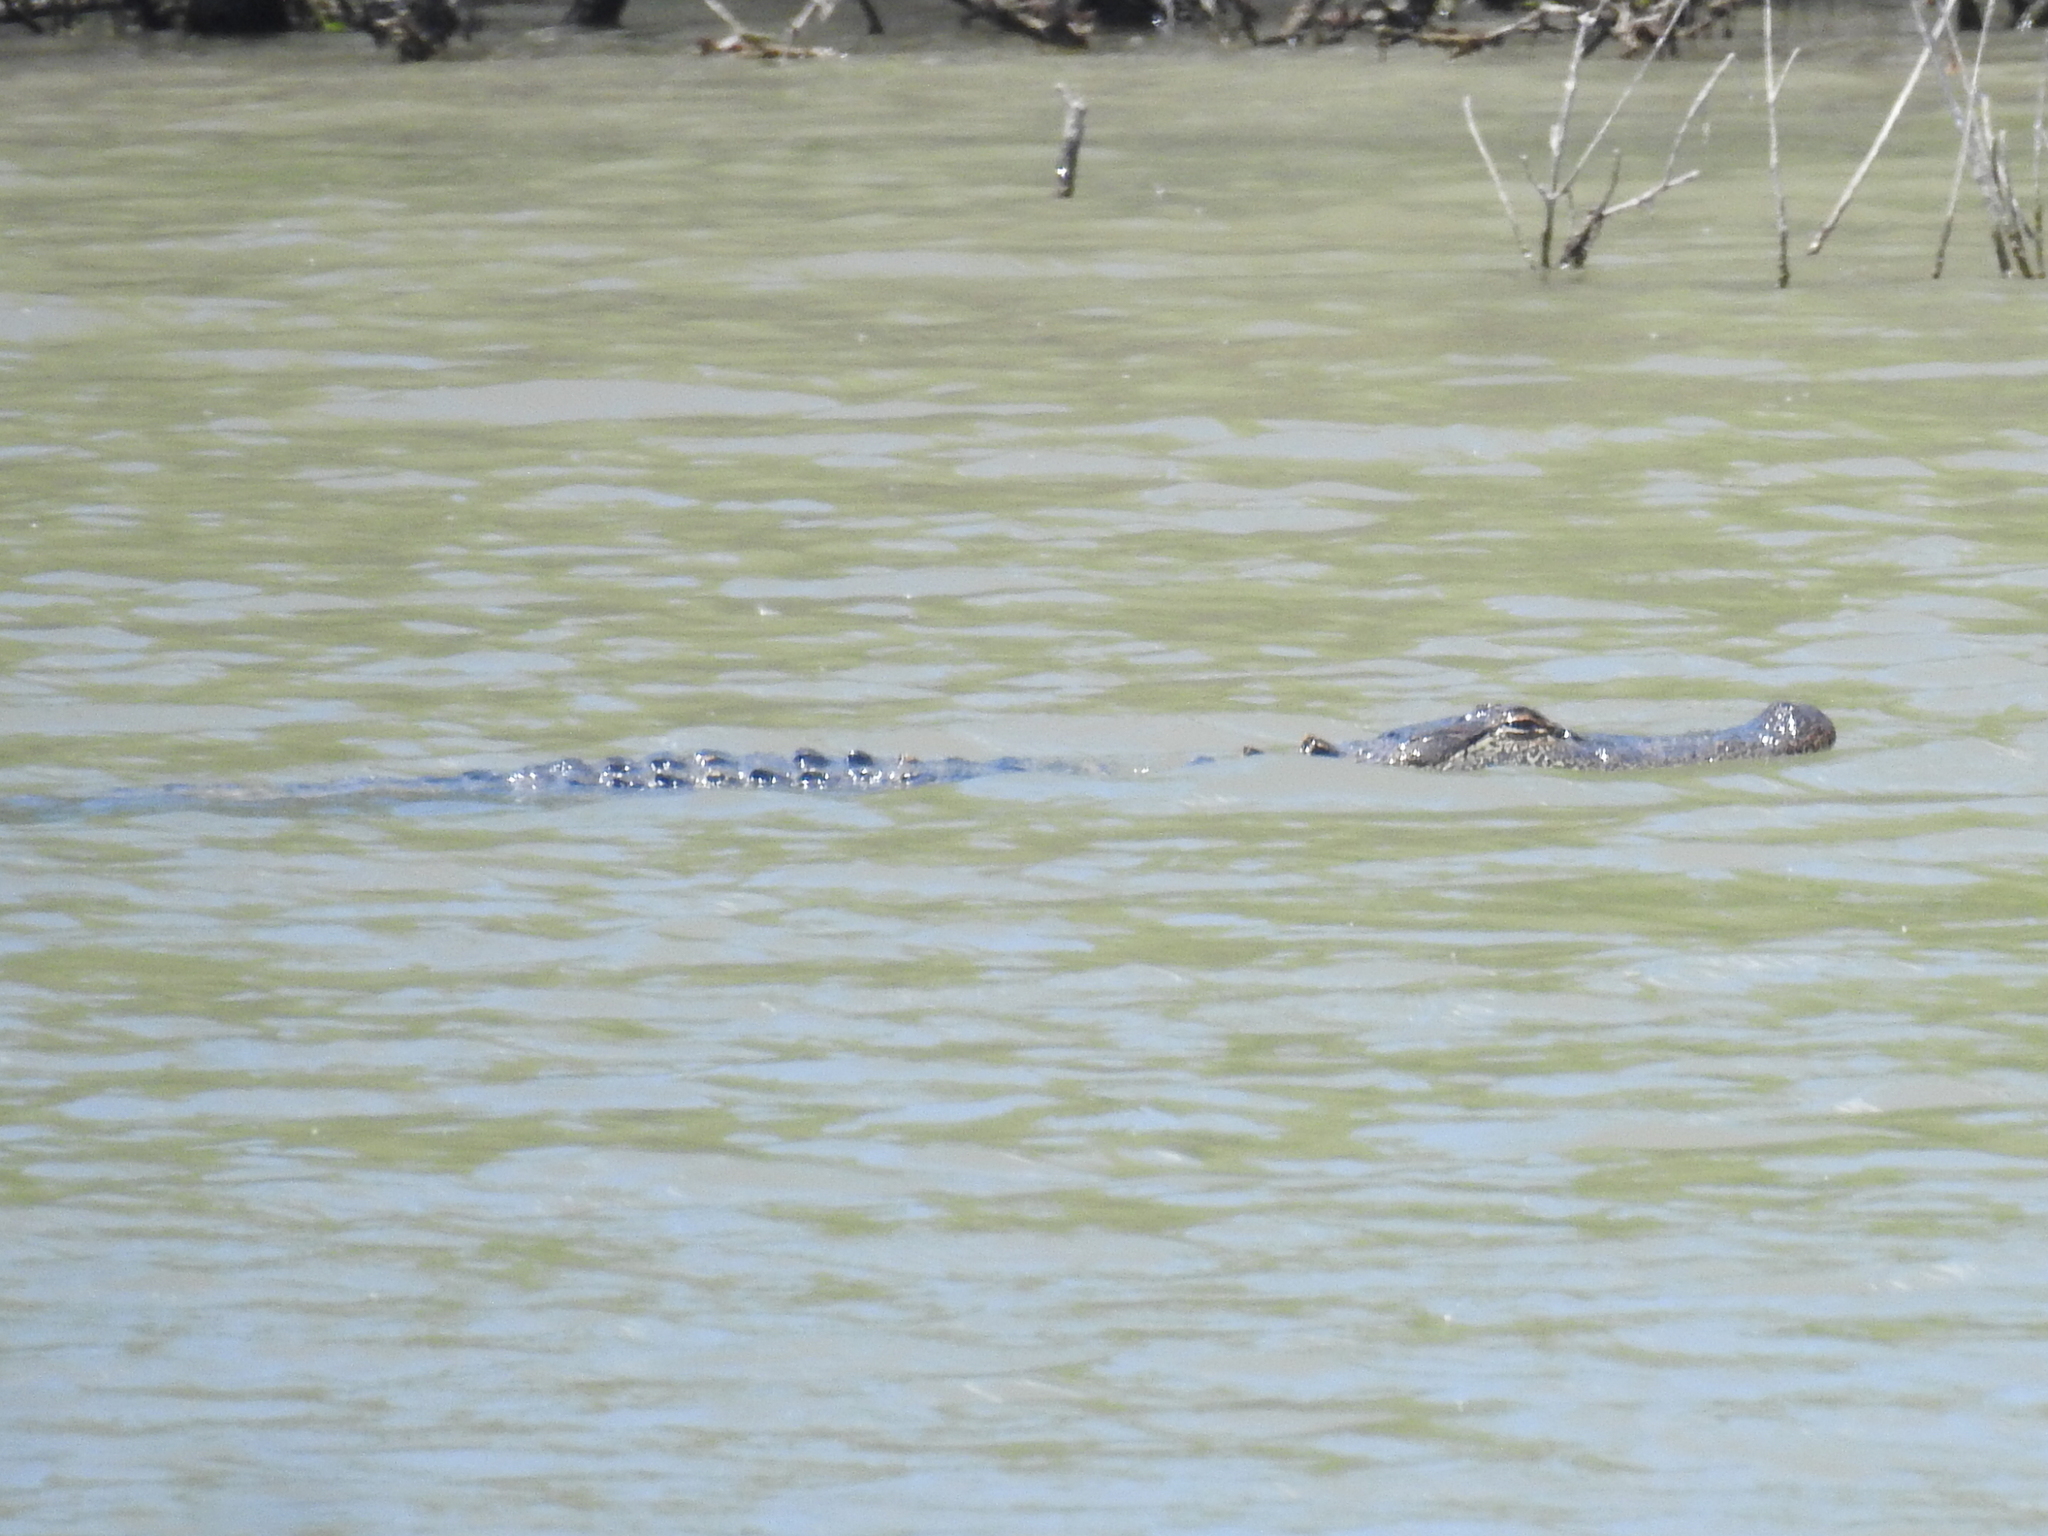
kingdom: Animalia
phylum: Chordata
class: Crocodylia
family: Alligatoridae
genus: Alligator
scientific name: Alligator mississippiensis
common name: American alligator
